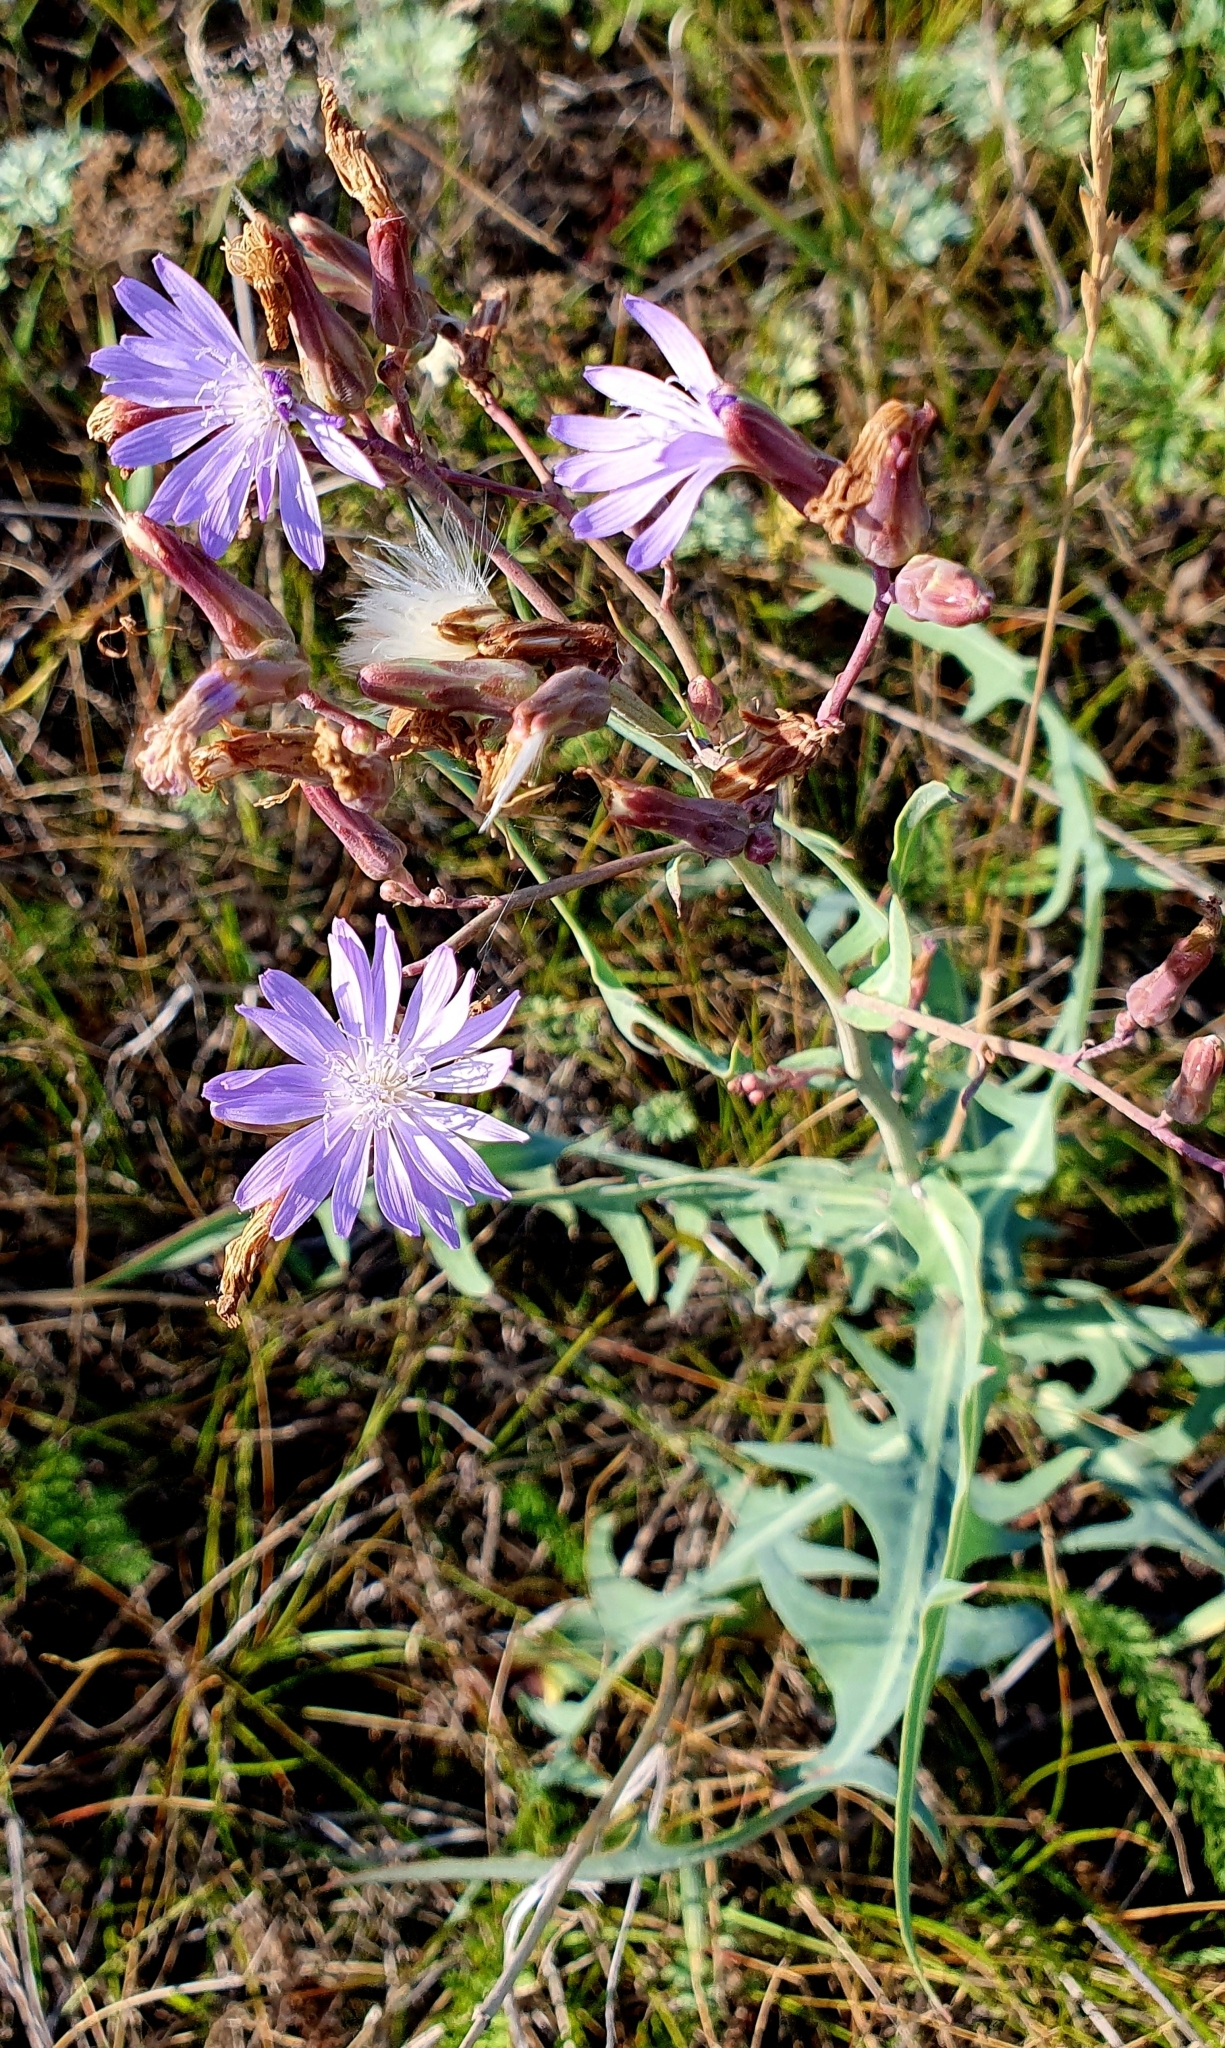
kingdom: Plantae
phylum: Tracheophyta
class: Magnoliopsida
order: Asterales
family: Asteraceae
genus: Lactuca
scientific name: Lactuca tatarica
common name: Blue lettuce
